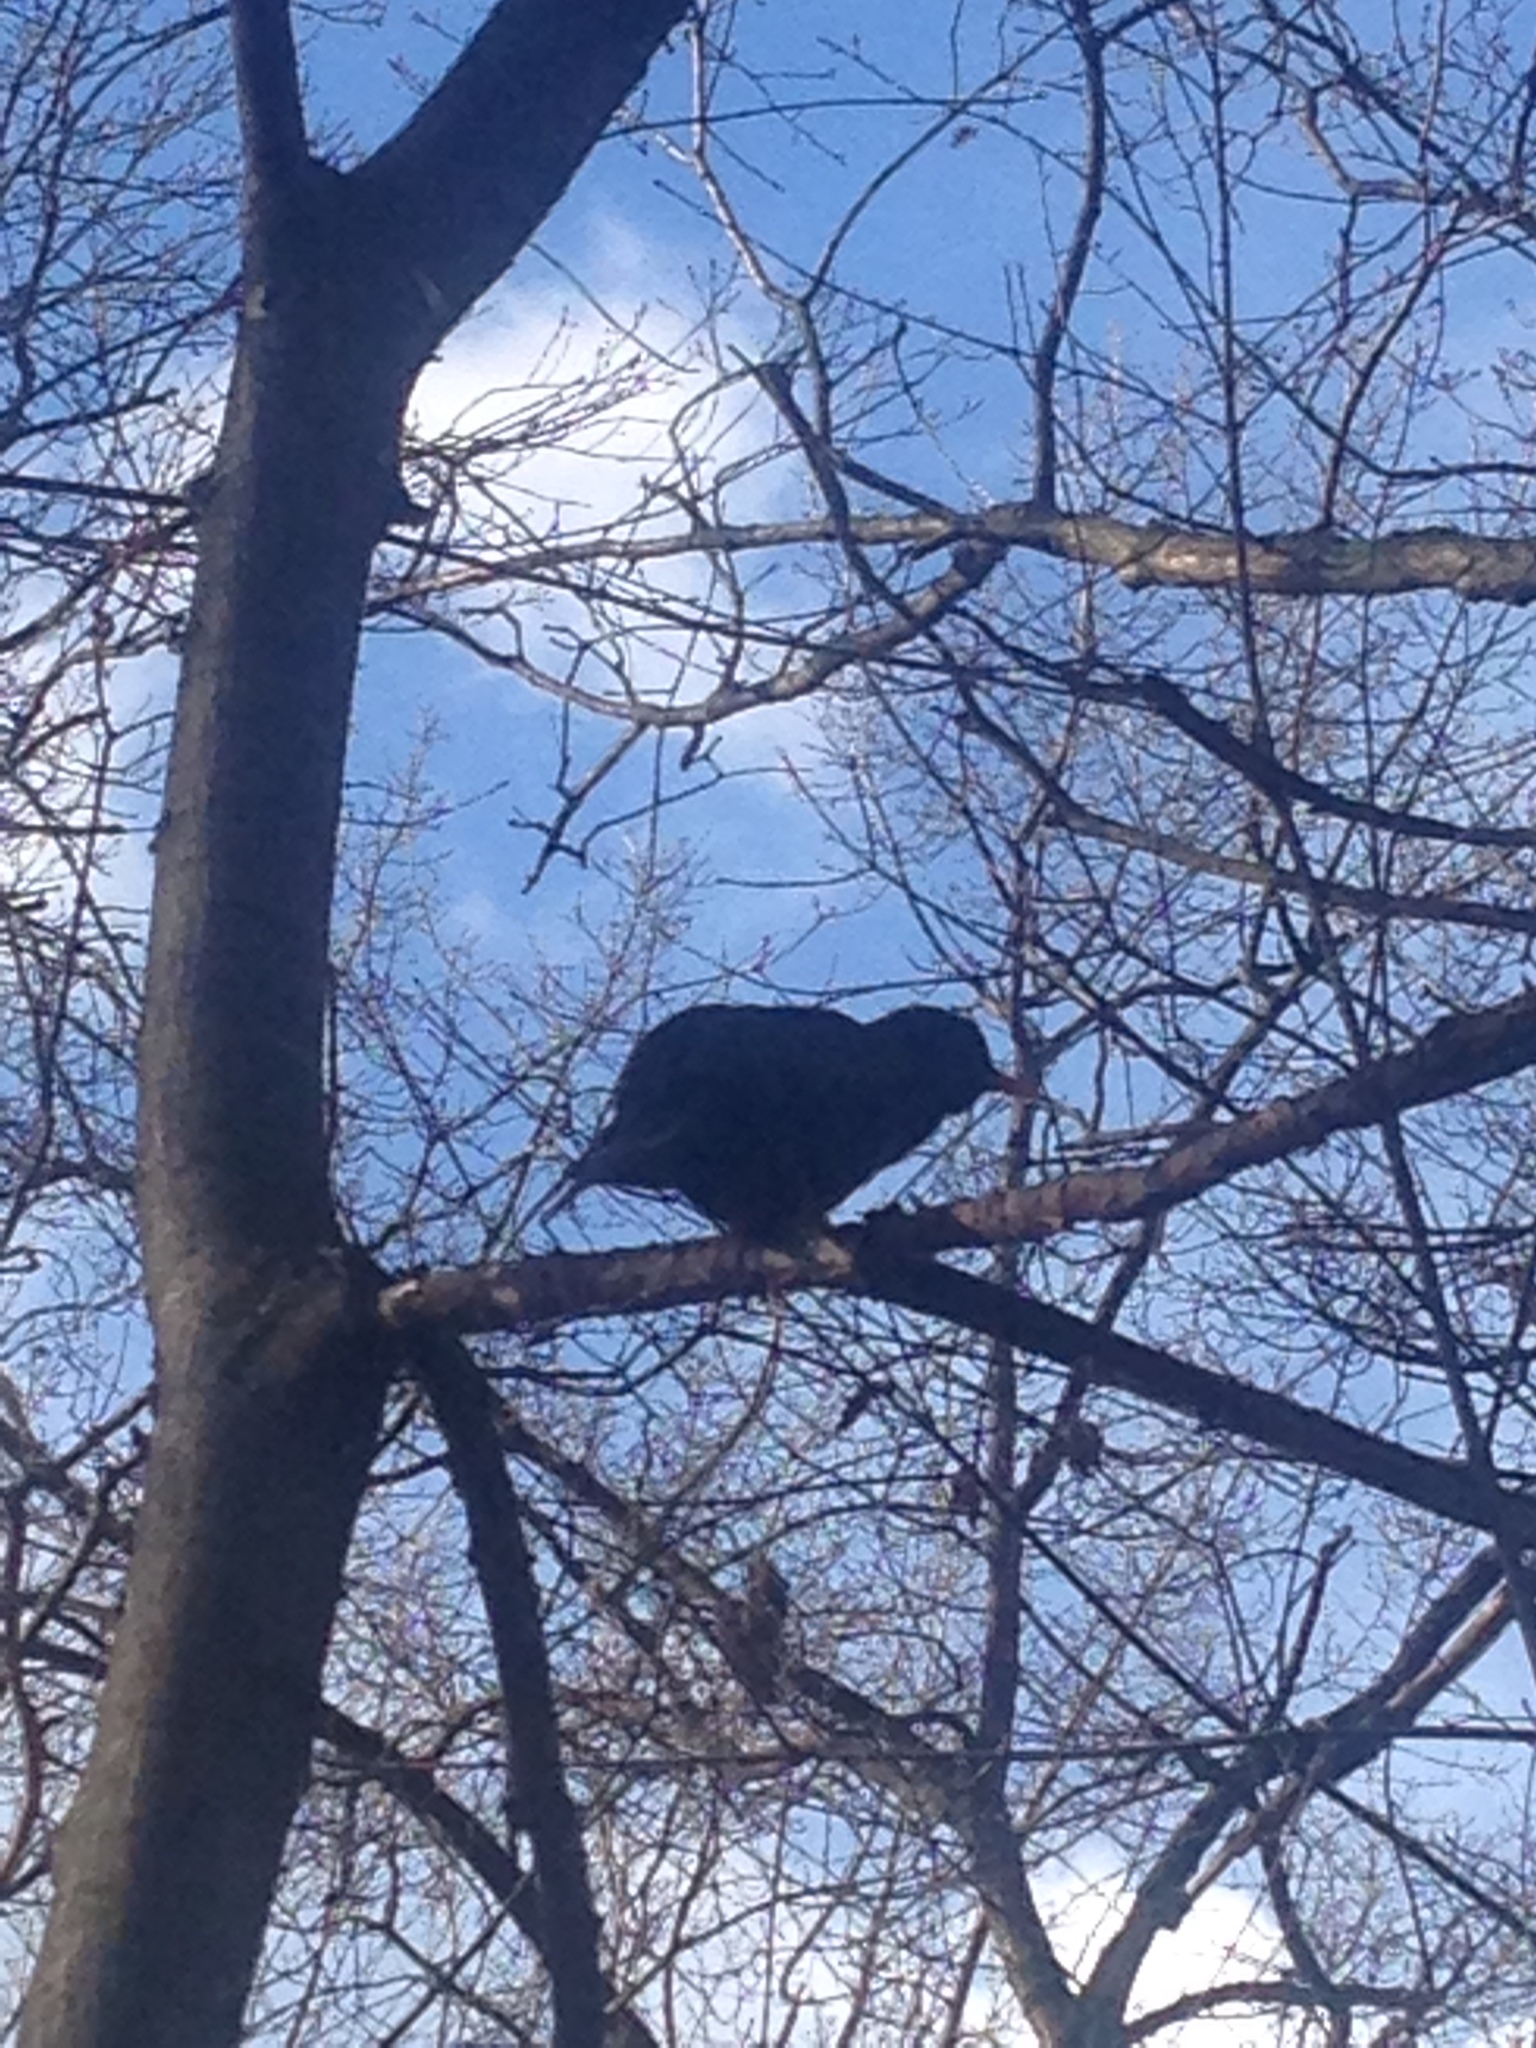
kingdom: Animalia
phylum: Chordata
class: Aves
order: Passeriformes
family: Turdidae
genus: Turdus
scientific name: Turdus merula
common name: Common blackbird
